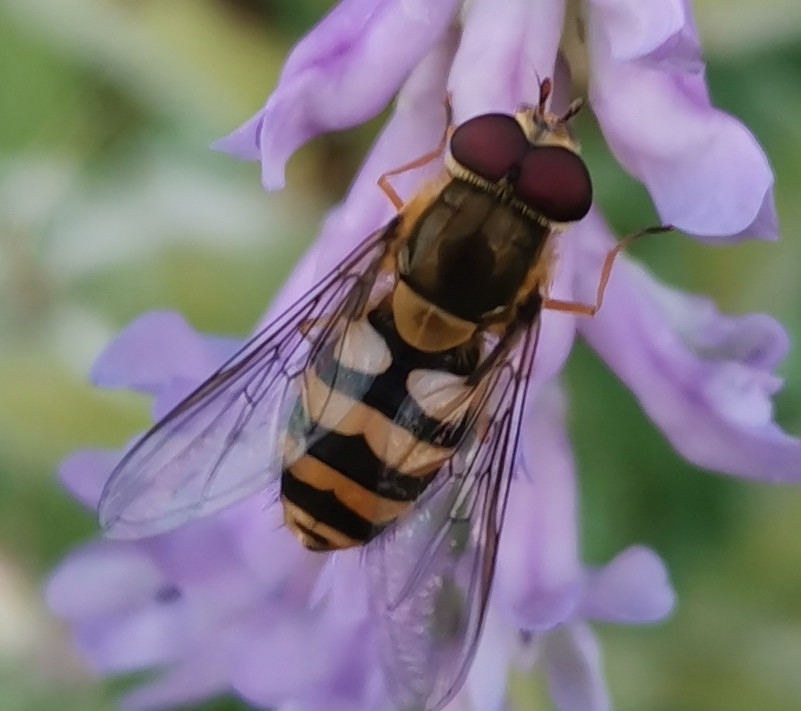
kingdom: Animalia
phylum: Arthropoda
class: Insecta
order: Diptera
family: Syrphidae
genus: Syrphus
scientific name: Syrphus
